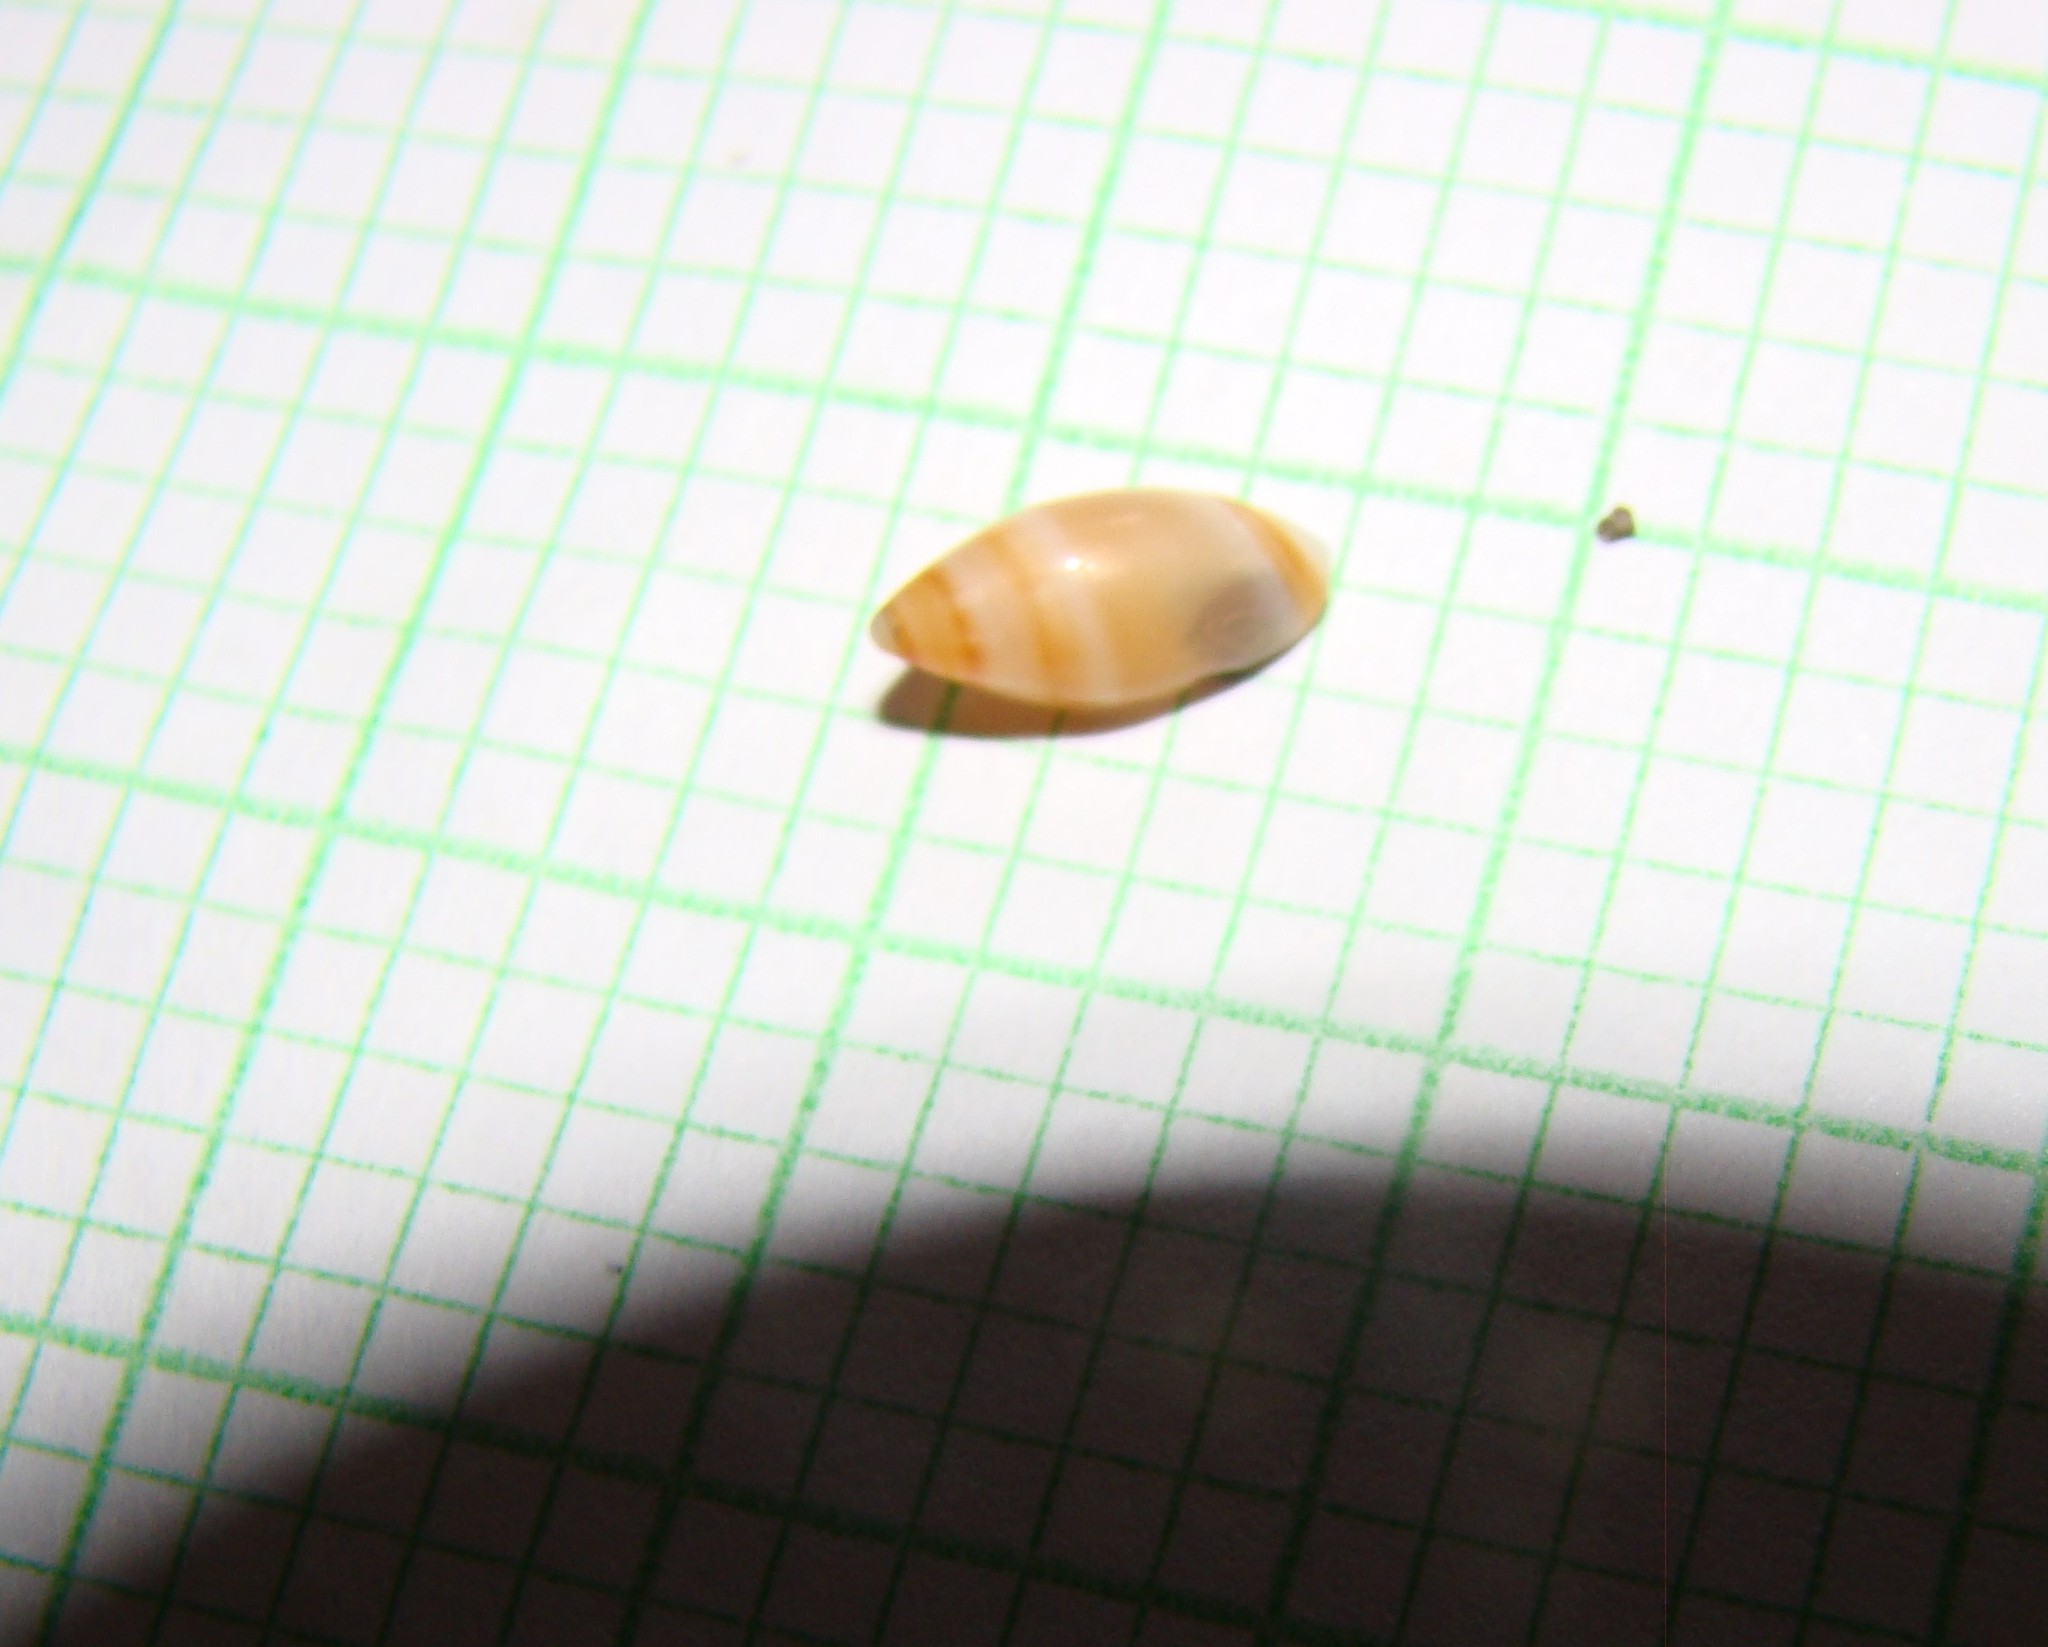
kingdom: Animalia
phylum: Mollusca
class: Gastropoda
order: Neogastropoda
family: Ancillariidae
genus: Amalda
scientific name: Amalda novaezelandiae
